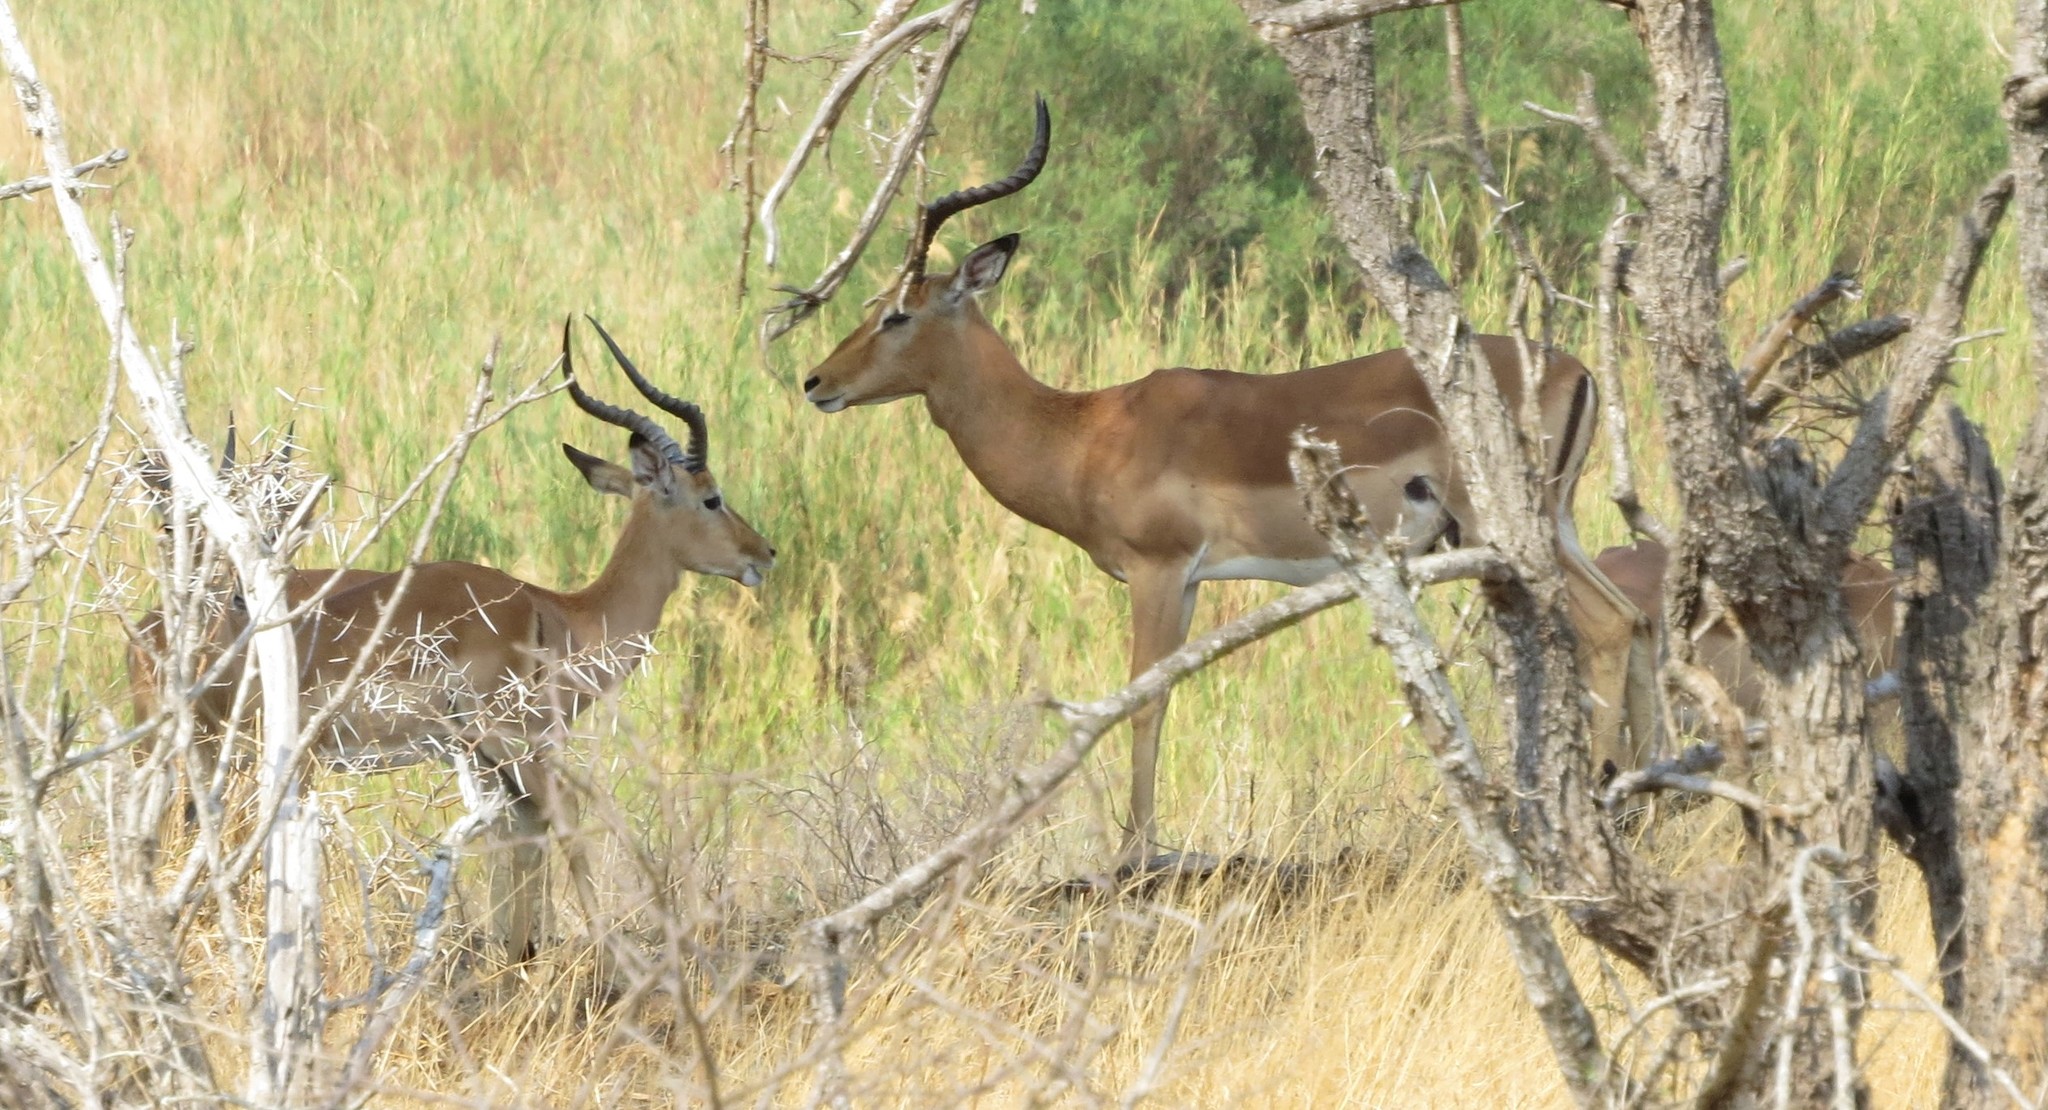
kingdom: Animalia
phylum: Chordata
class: Mammalia
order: Artiodactyla
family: Bovidae
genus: Aepyceros
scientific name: Aepyceros melampus
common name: Impala
